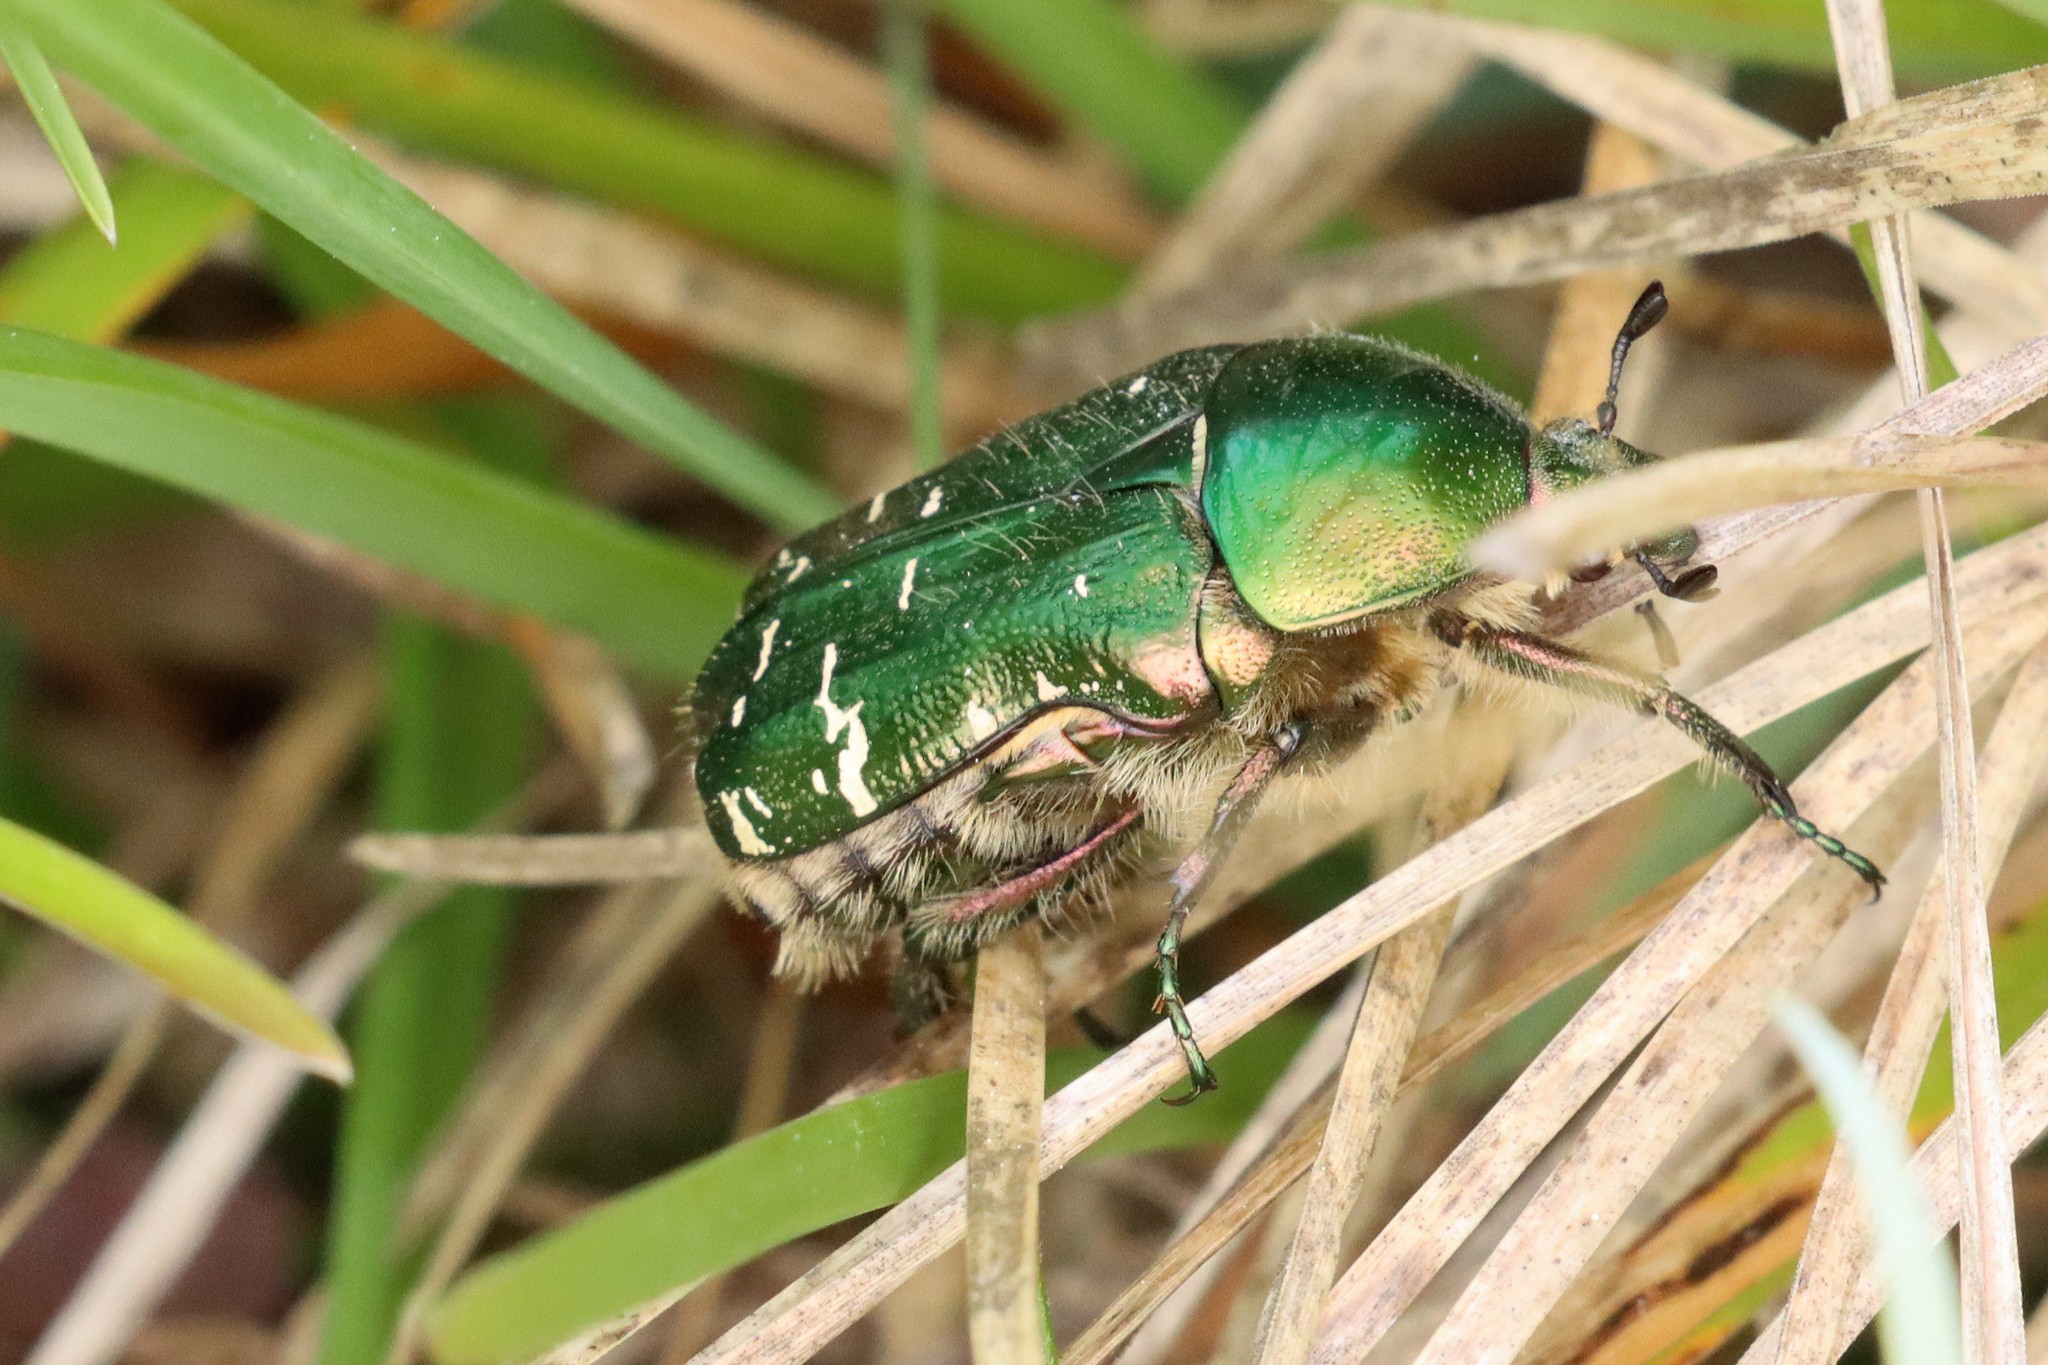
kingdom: Animalia
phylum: Arthropoda
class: Insecta
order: Coleoptera
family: Scarabaeidae
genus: Cetonia
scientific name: Cetonia aurata
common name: Rose chafer
